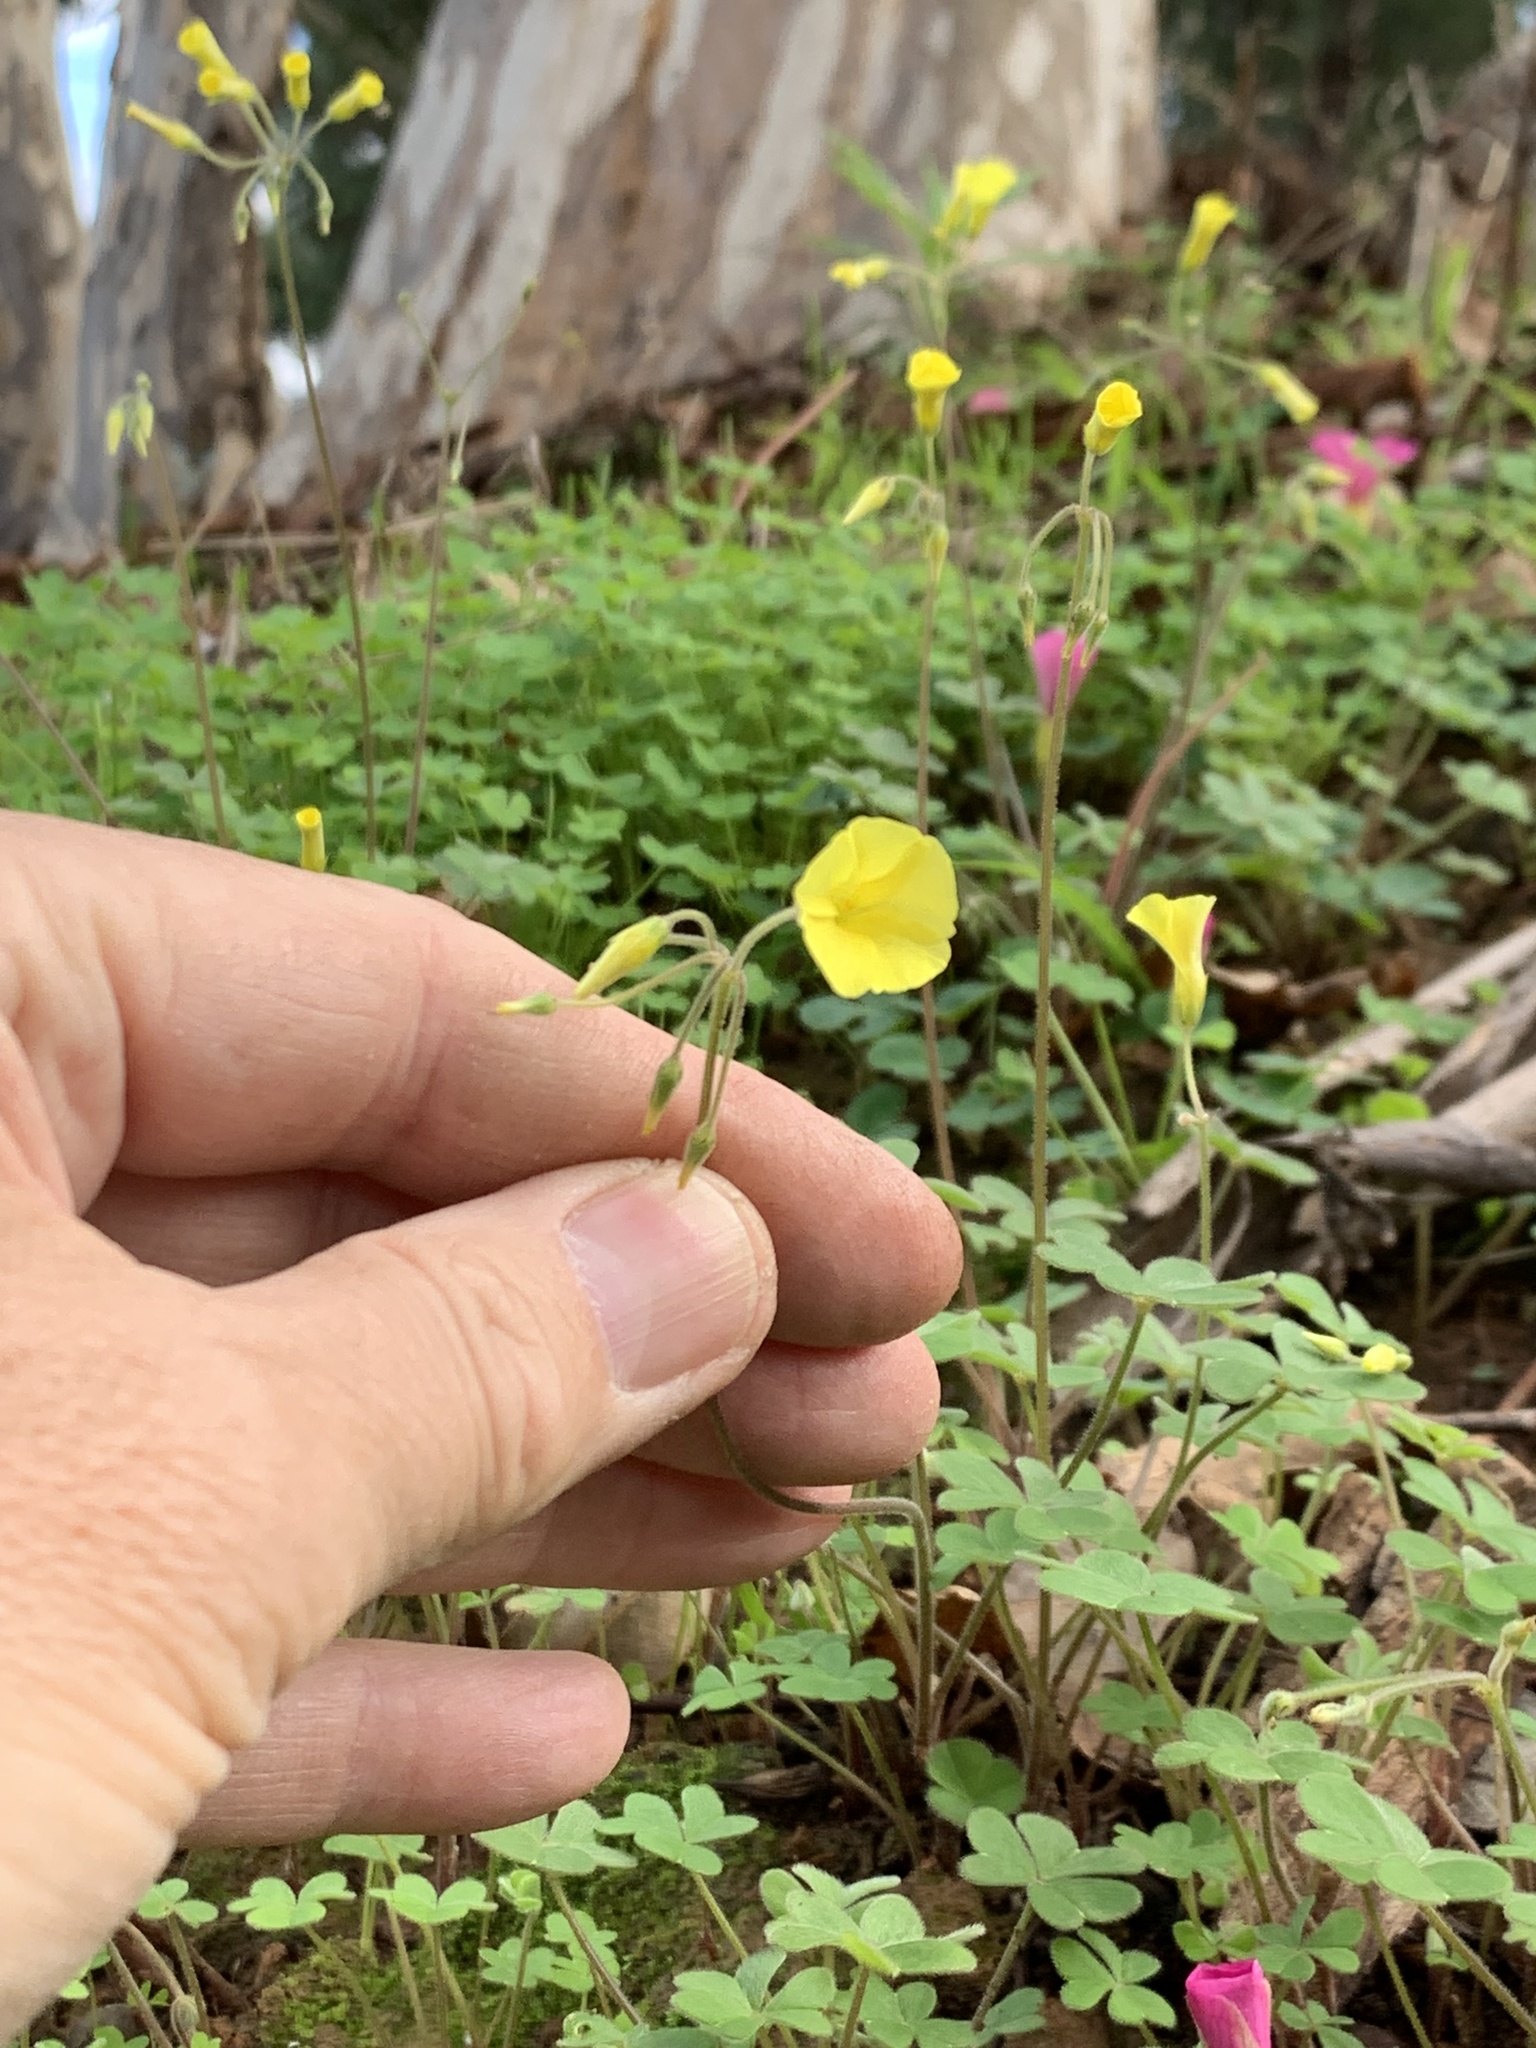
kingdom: Plantae
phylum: Tracheophyta
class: Magnoliopsida
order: Oxalidales
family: Oxalidaceae
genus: Oxalis
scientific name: Oxalis pes-caprae
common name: Bermuda-buttercup
